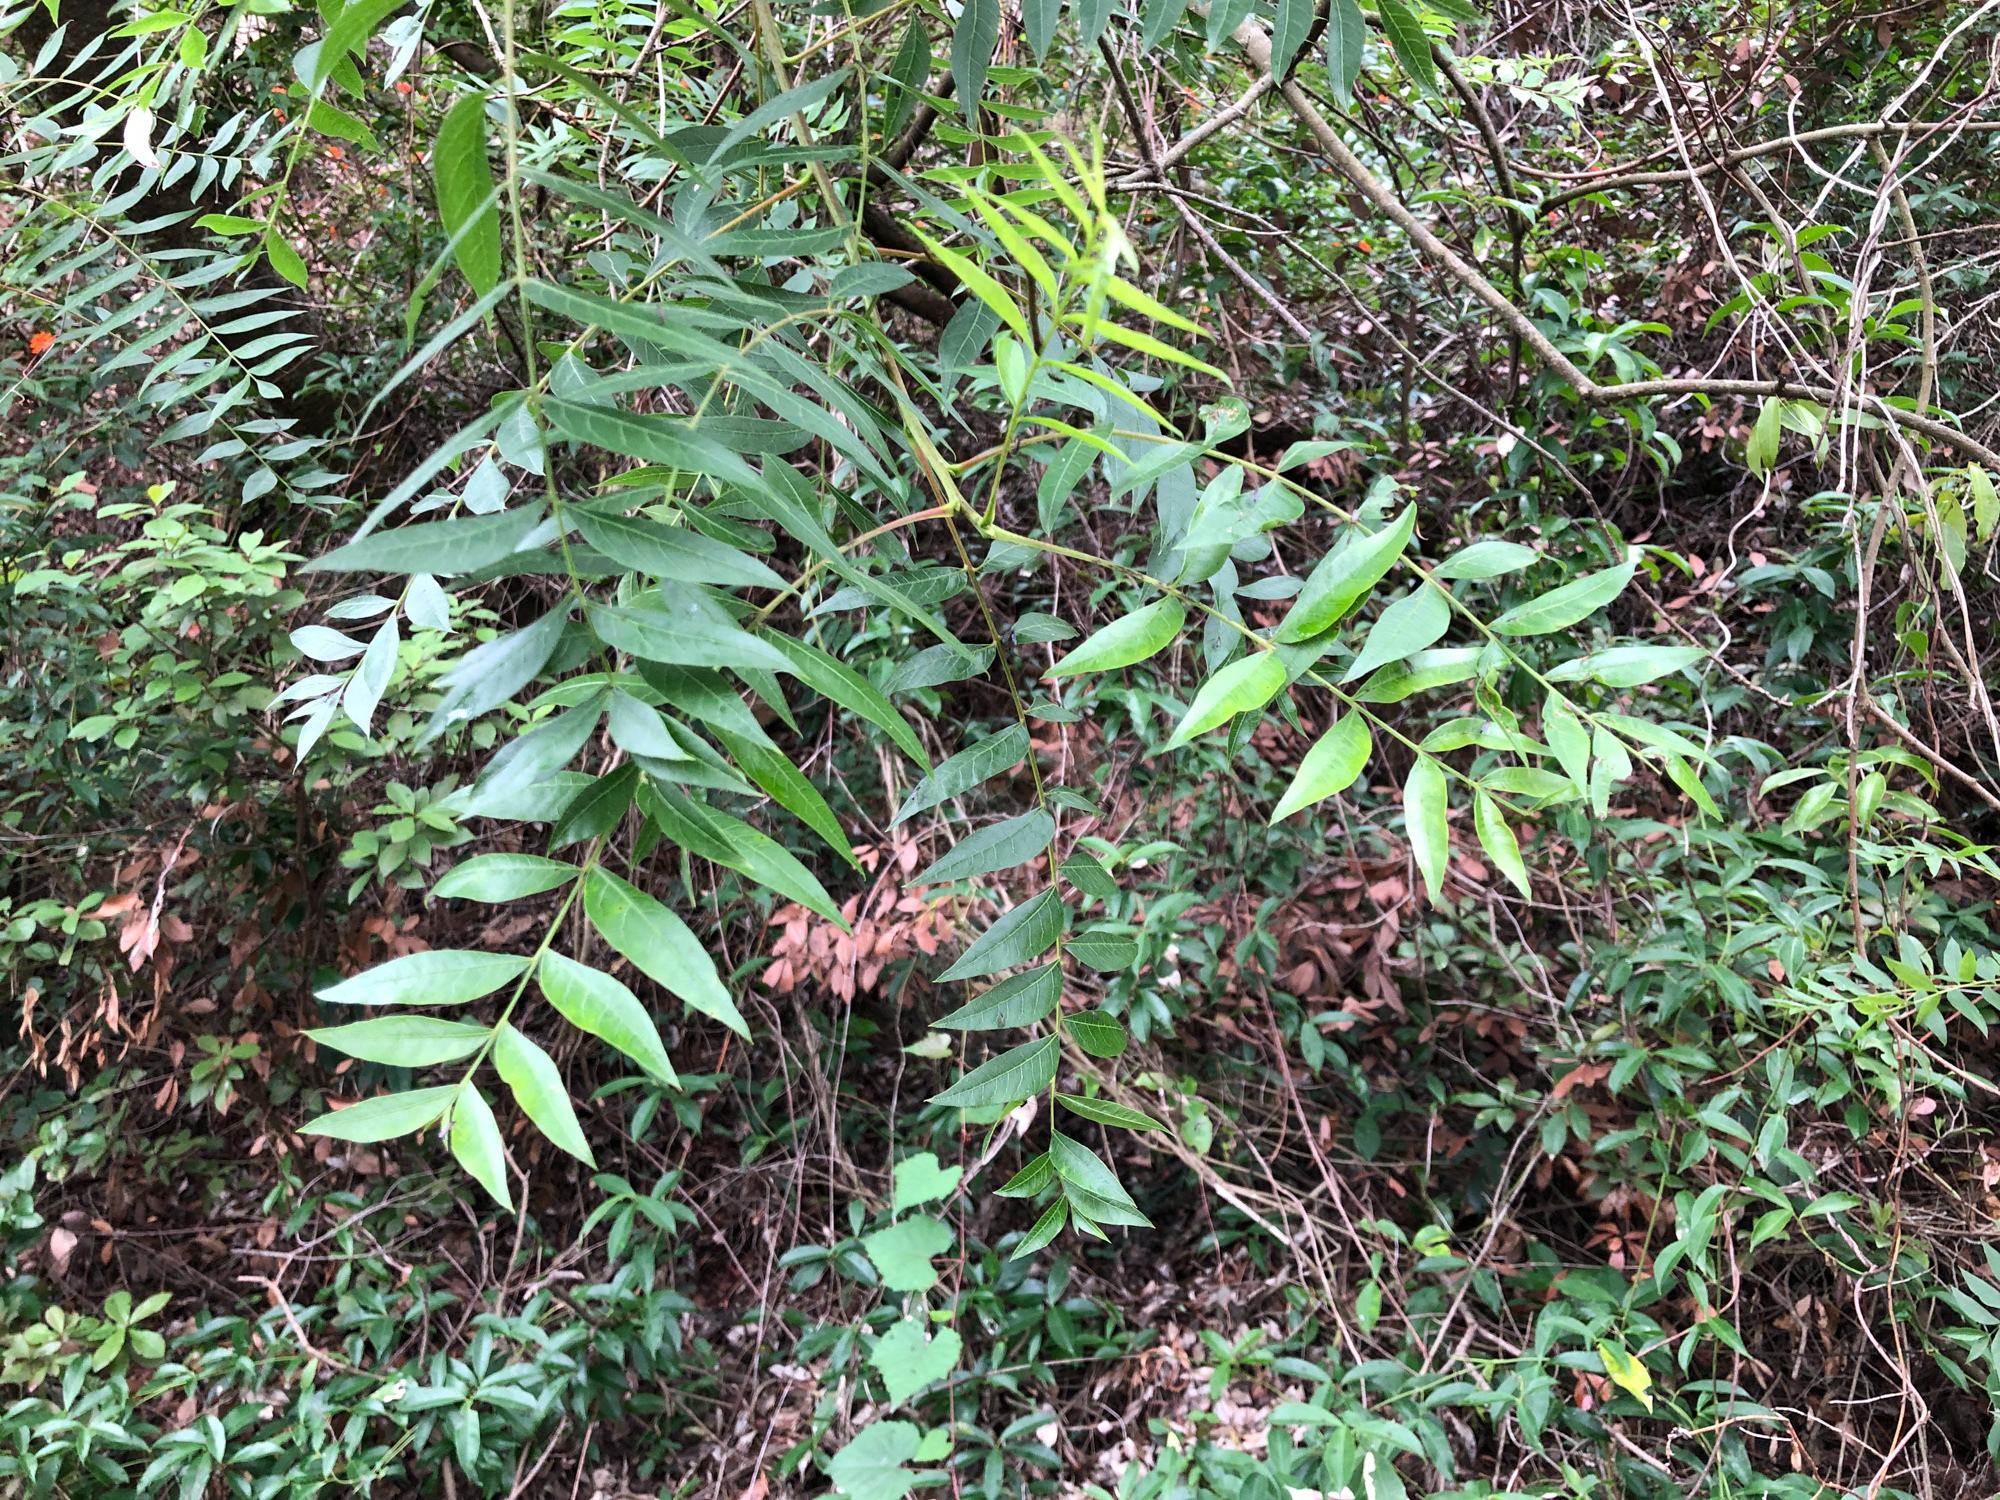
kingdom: Plantae
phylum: Tracheophyta
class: Magnoliopsida
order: Sapindales
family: Anacardiaceae
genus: Pistacia
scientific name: Pistacia chinensis
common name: Chinese pistache
